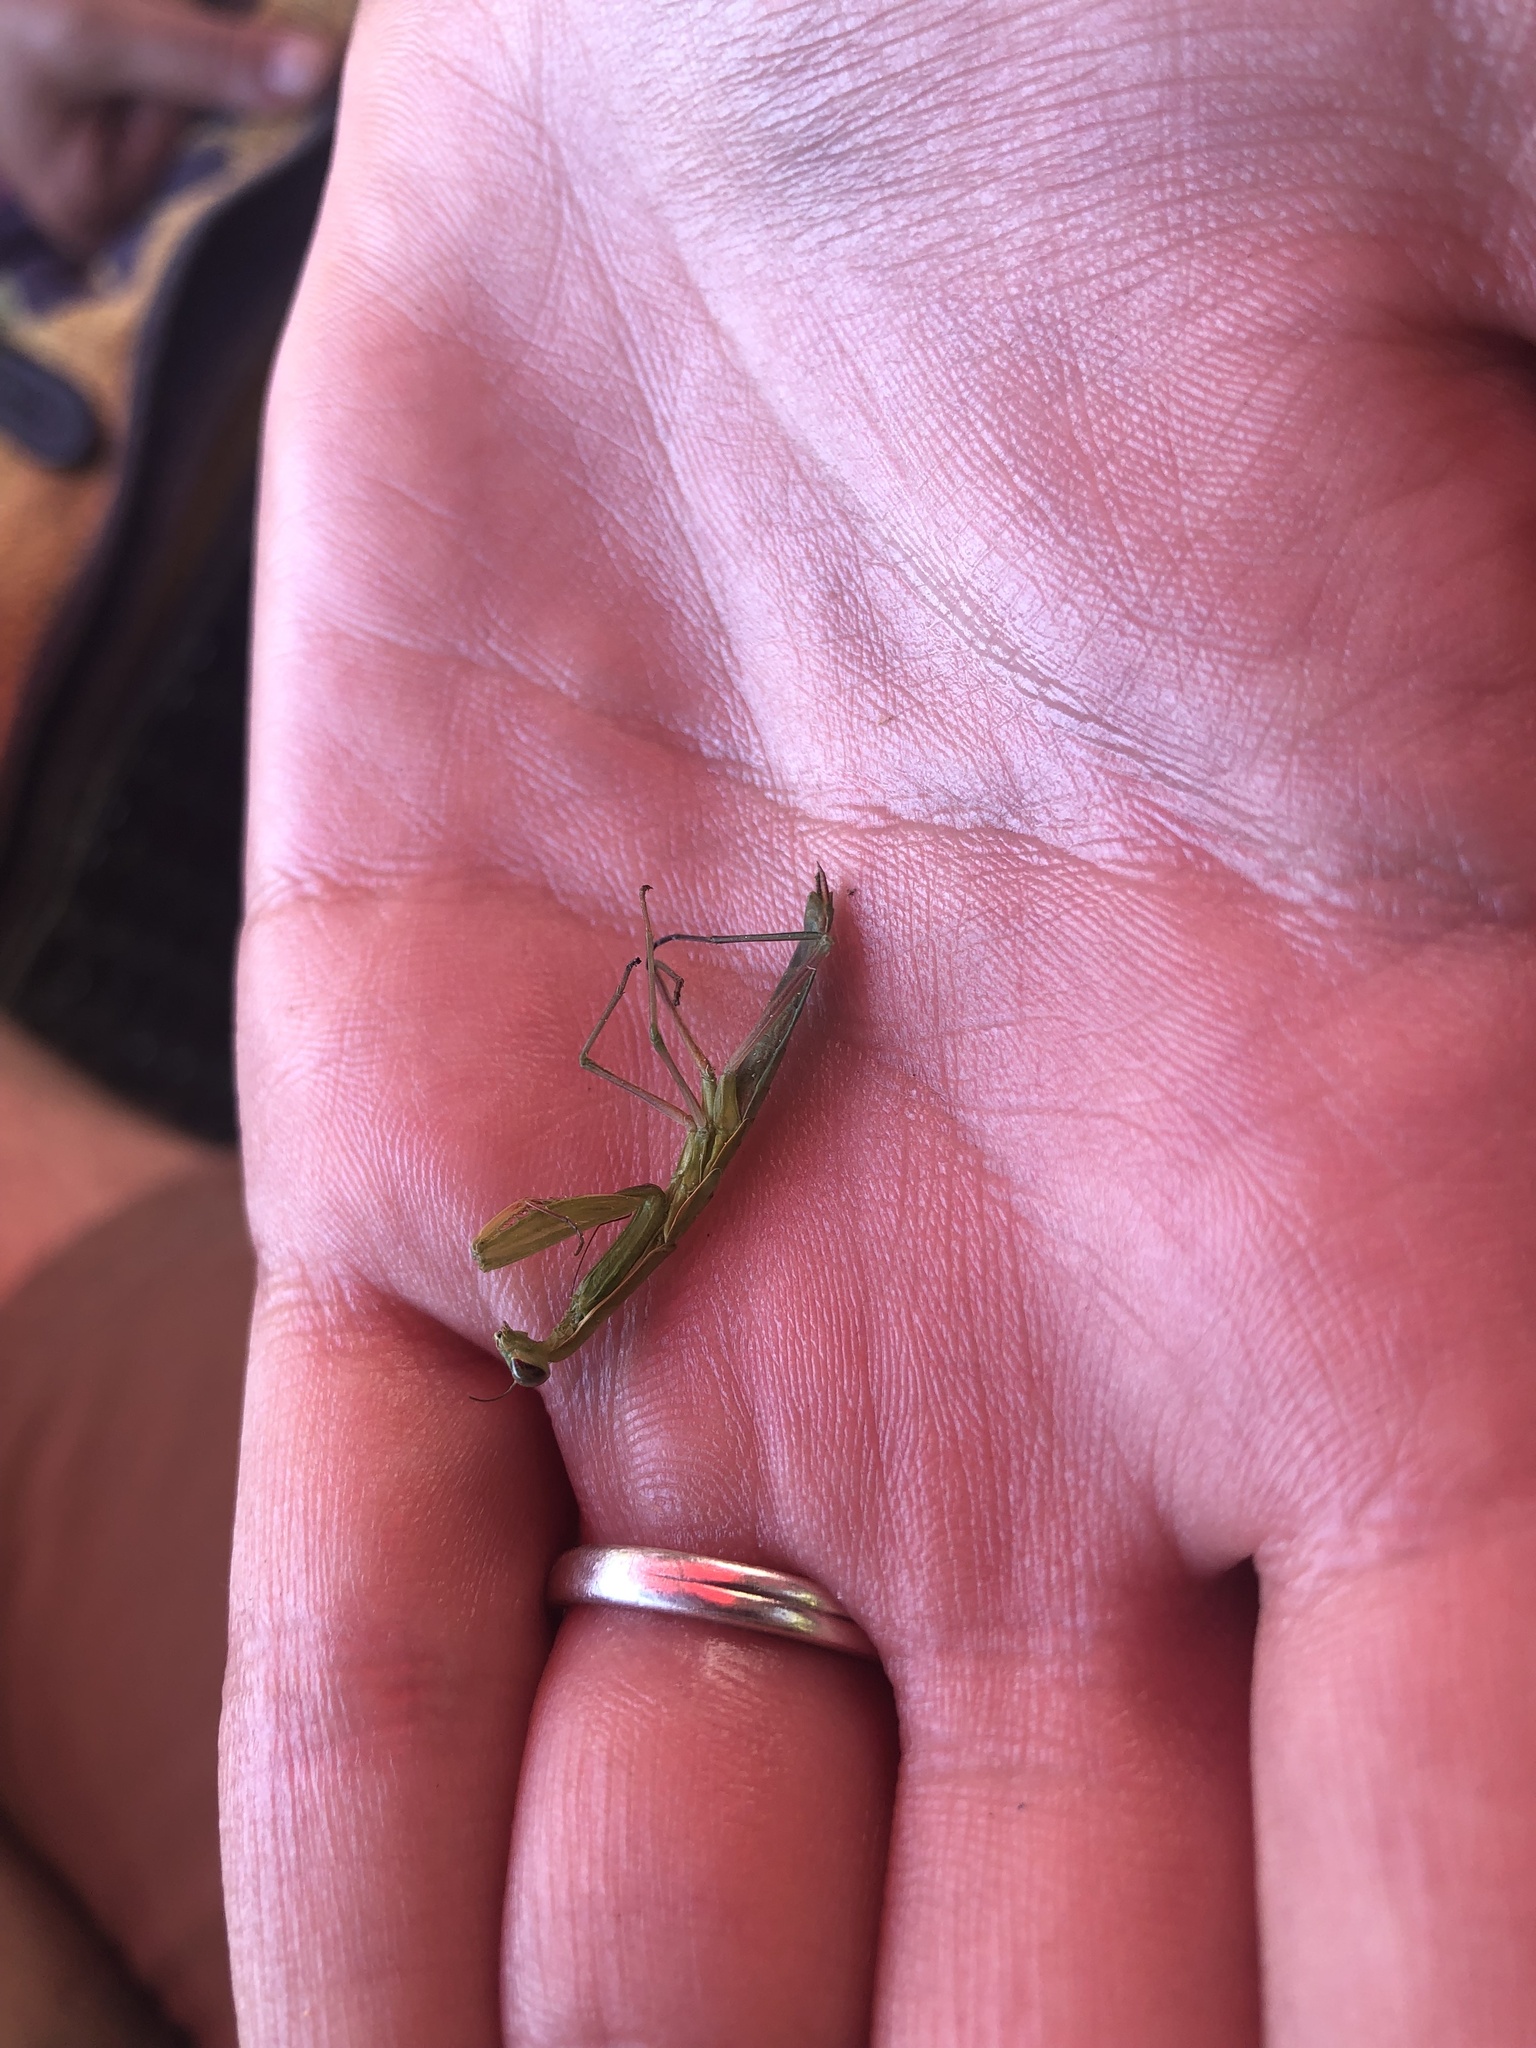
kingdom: Animalia
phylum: Arthropoda
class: Insecta
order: Mantodea
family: Mantidae
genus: Mantis
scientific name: Mantis religiosa
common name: Praying mantis
